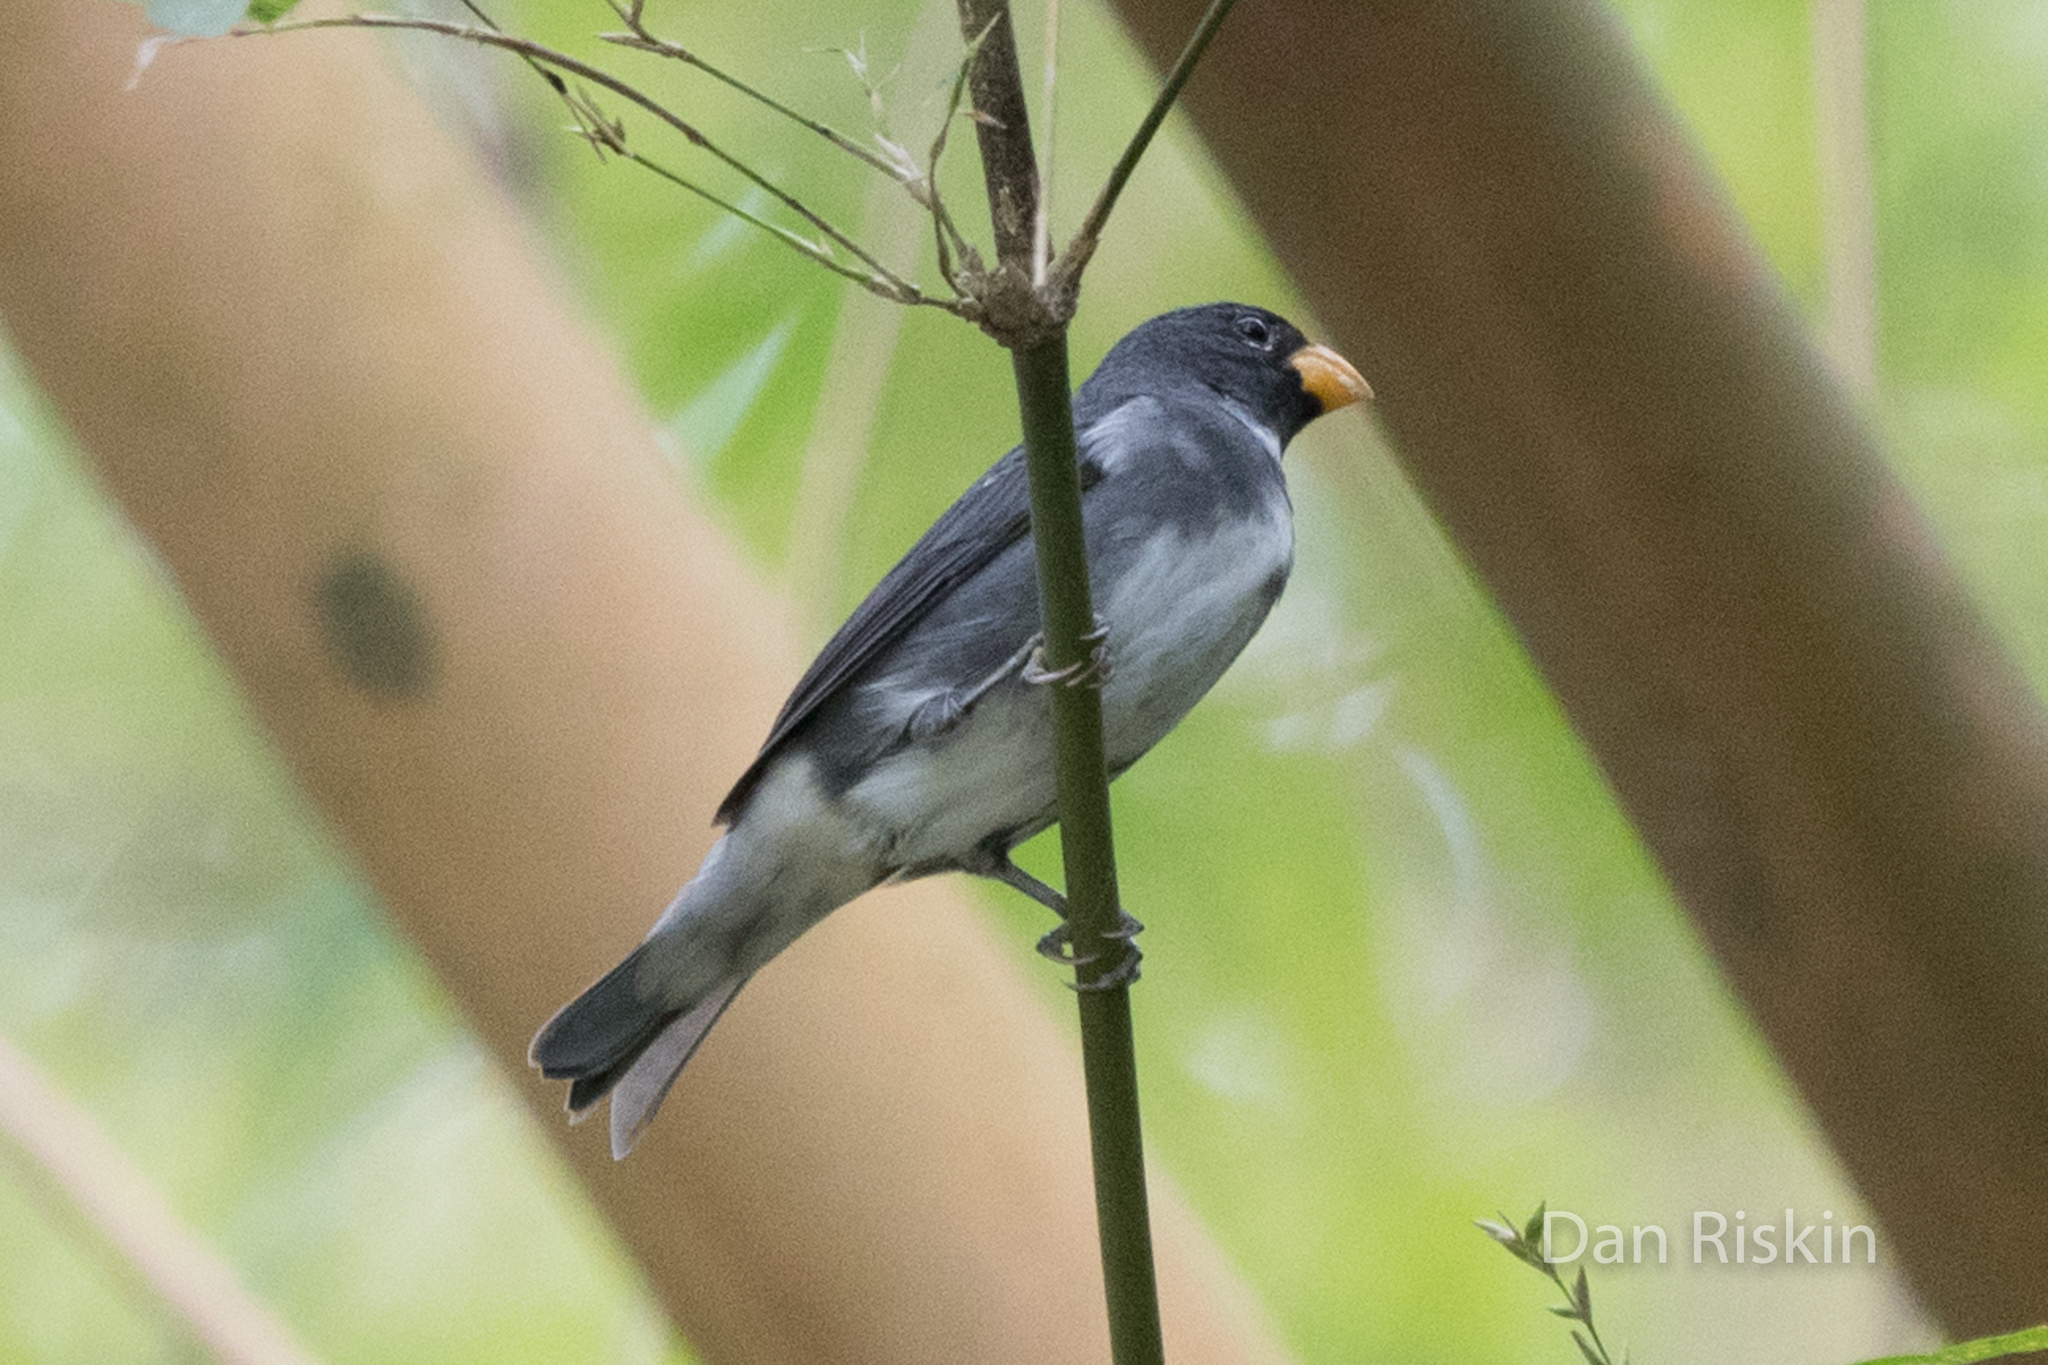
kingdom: Animalia
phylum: Chordata
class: Aves
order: Passeriformes
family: Thraupidae
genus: Sporophila
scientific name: Sporophila schistacea
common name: Slate-colored seedeater
